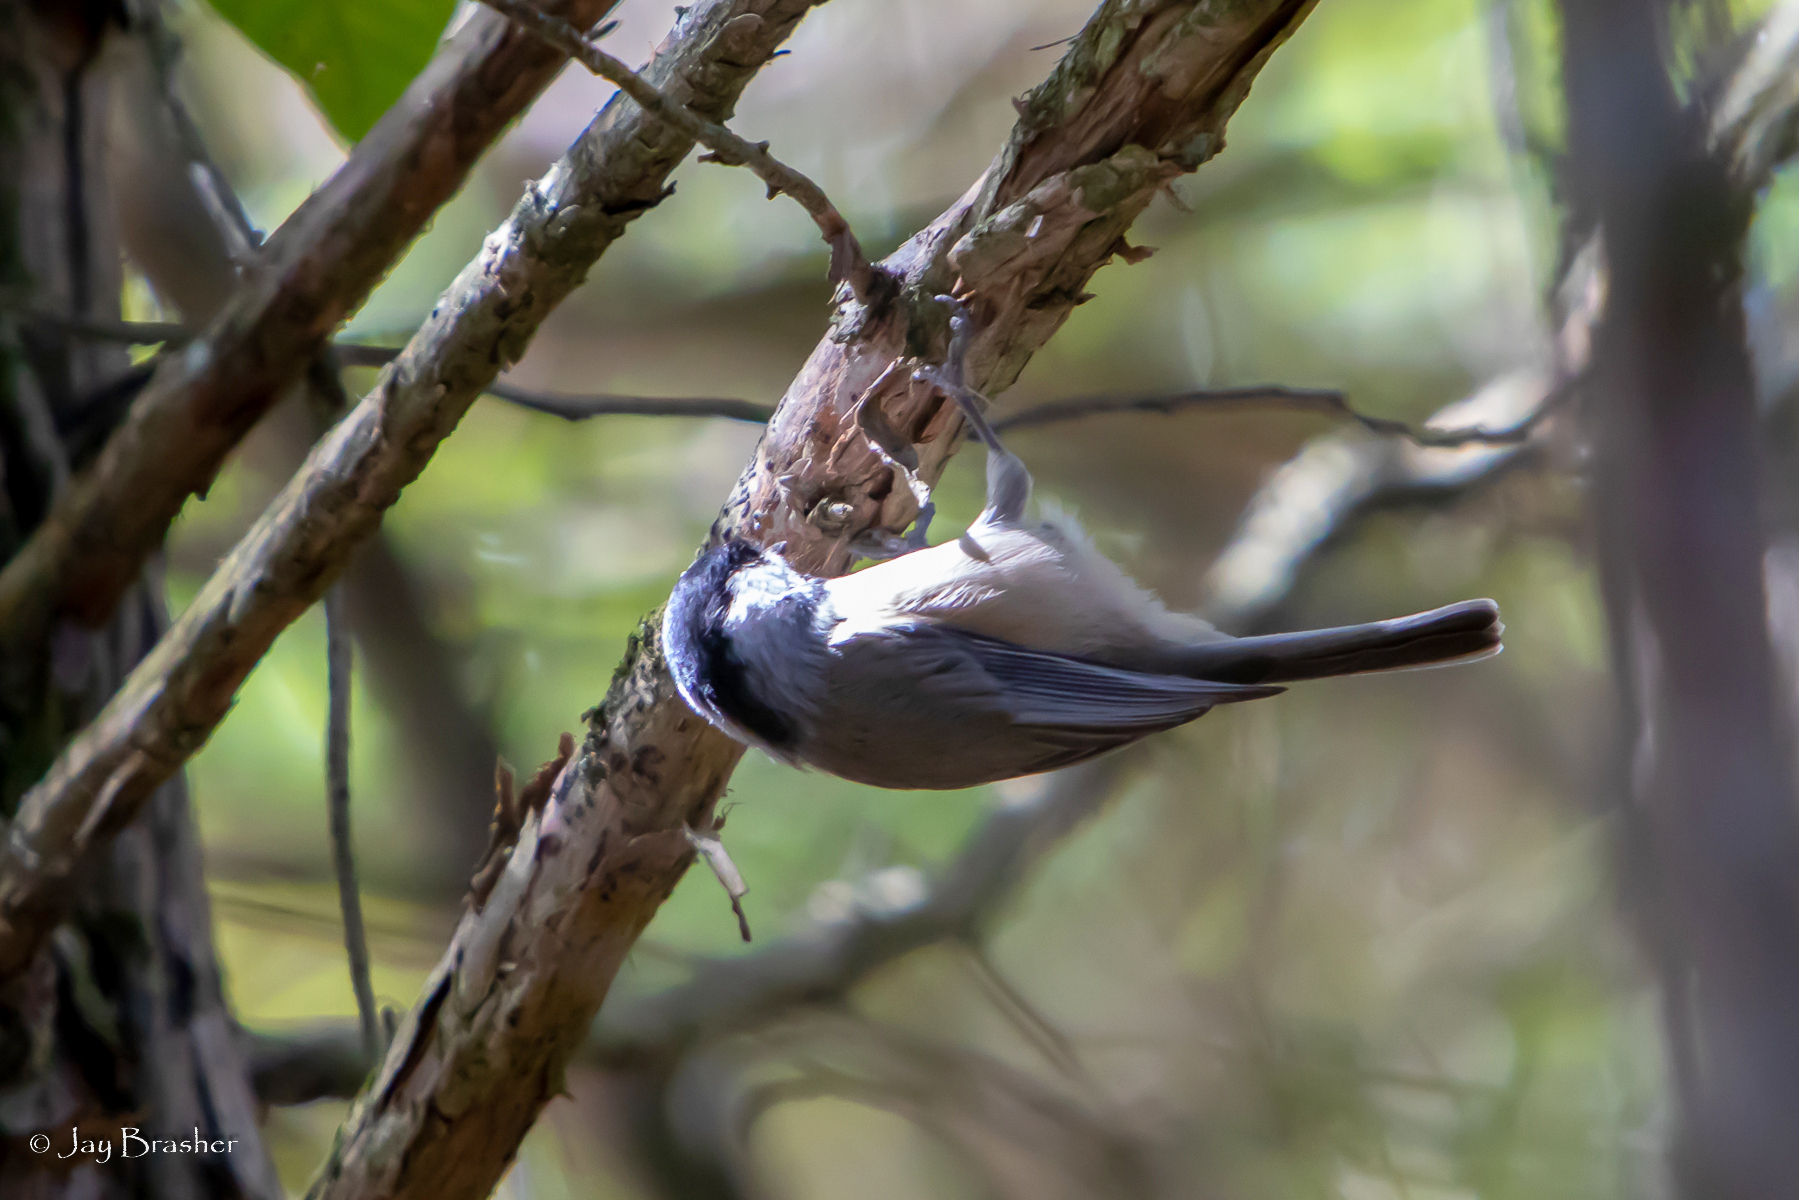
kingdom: Animalia
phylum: Chordata
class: Aves
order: Passeriformes
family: Paridae
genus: Poecile
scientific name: Poecile carolinensis
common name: Carolina chickadee
